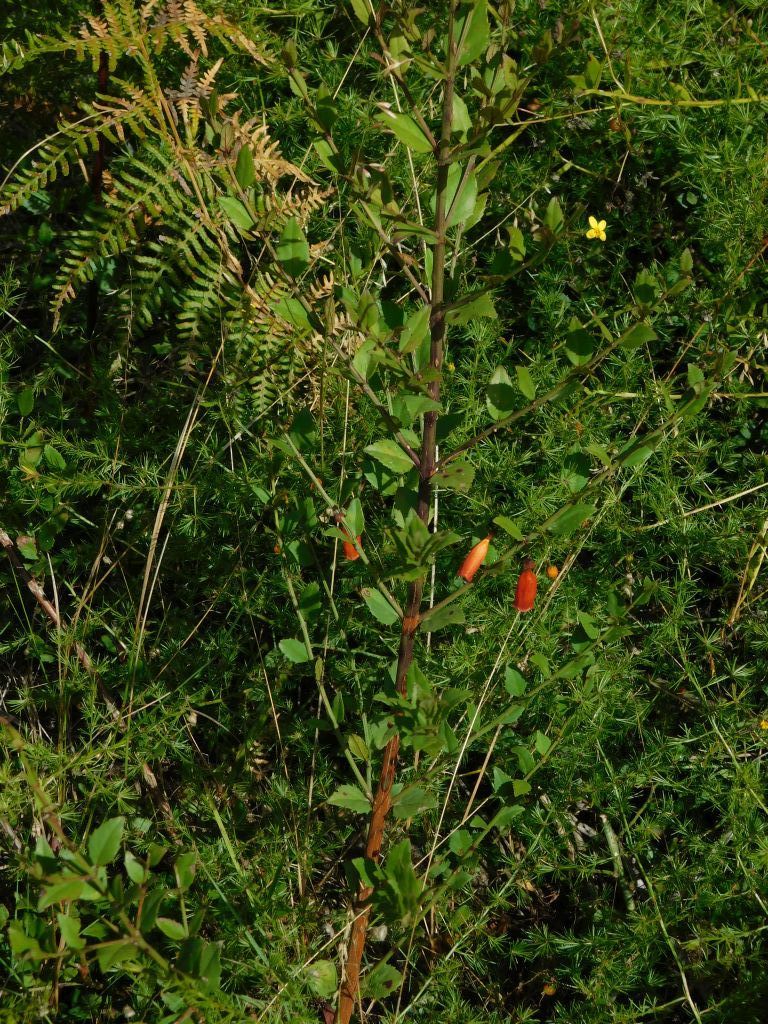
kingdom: Plantae
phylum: Tracheophyta
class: Magnoliopsida
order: Lamiales
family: Stilbaceae
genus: Halleria
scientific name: Halleria elliptica
